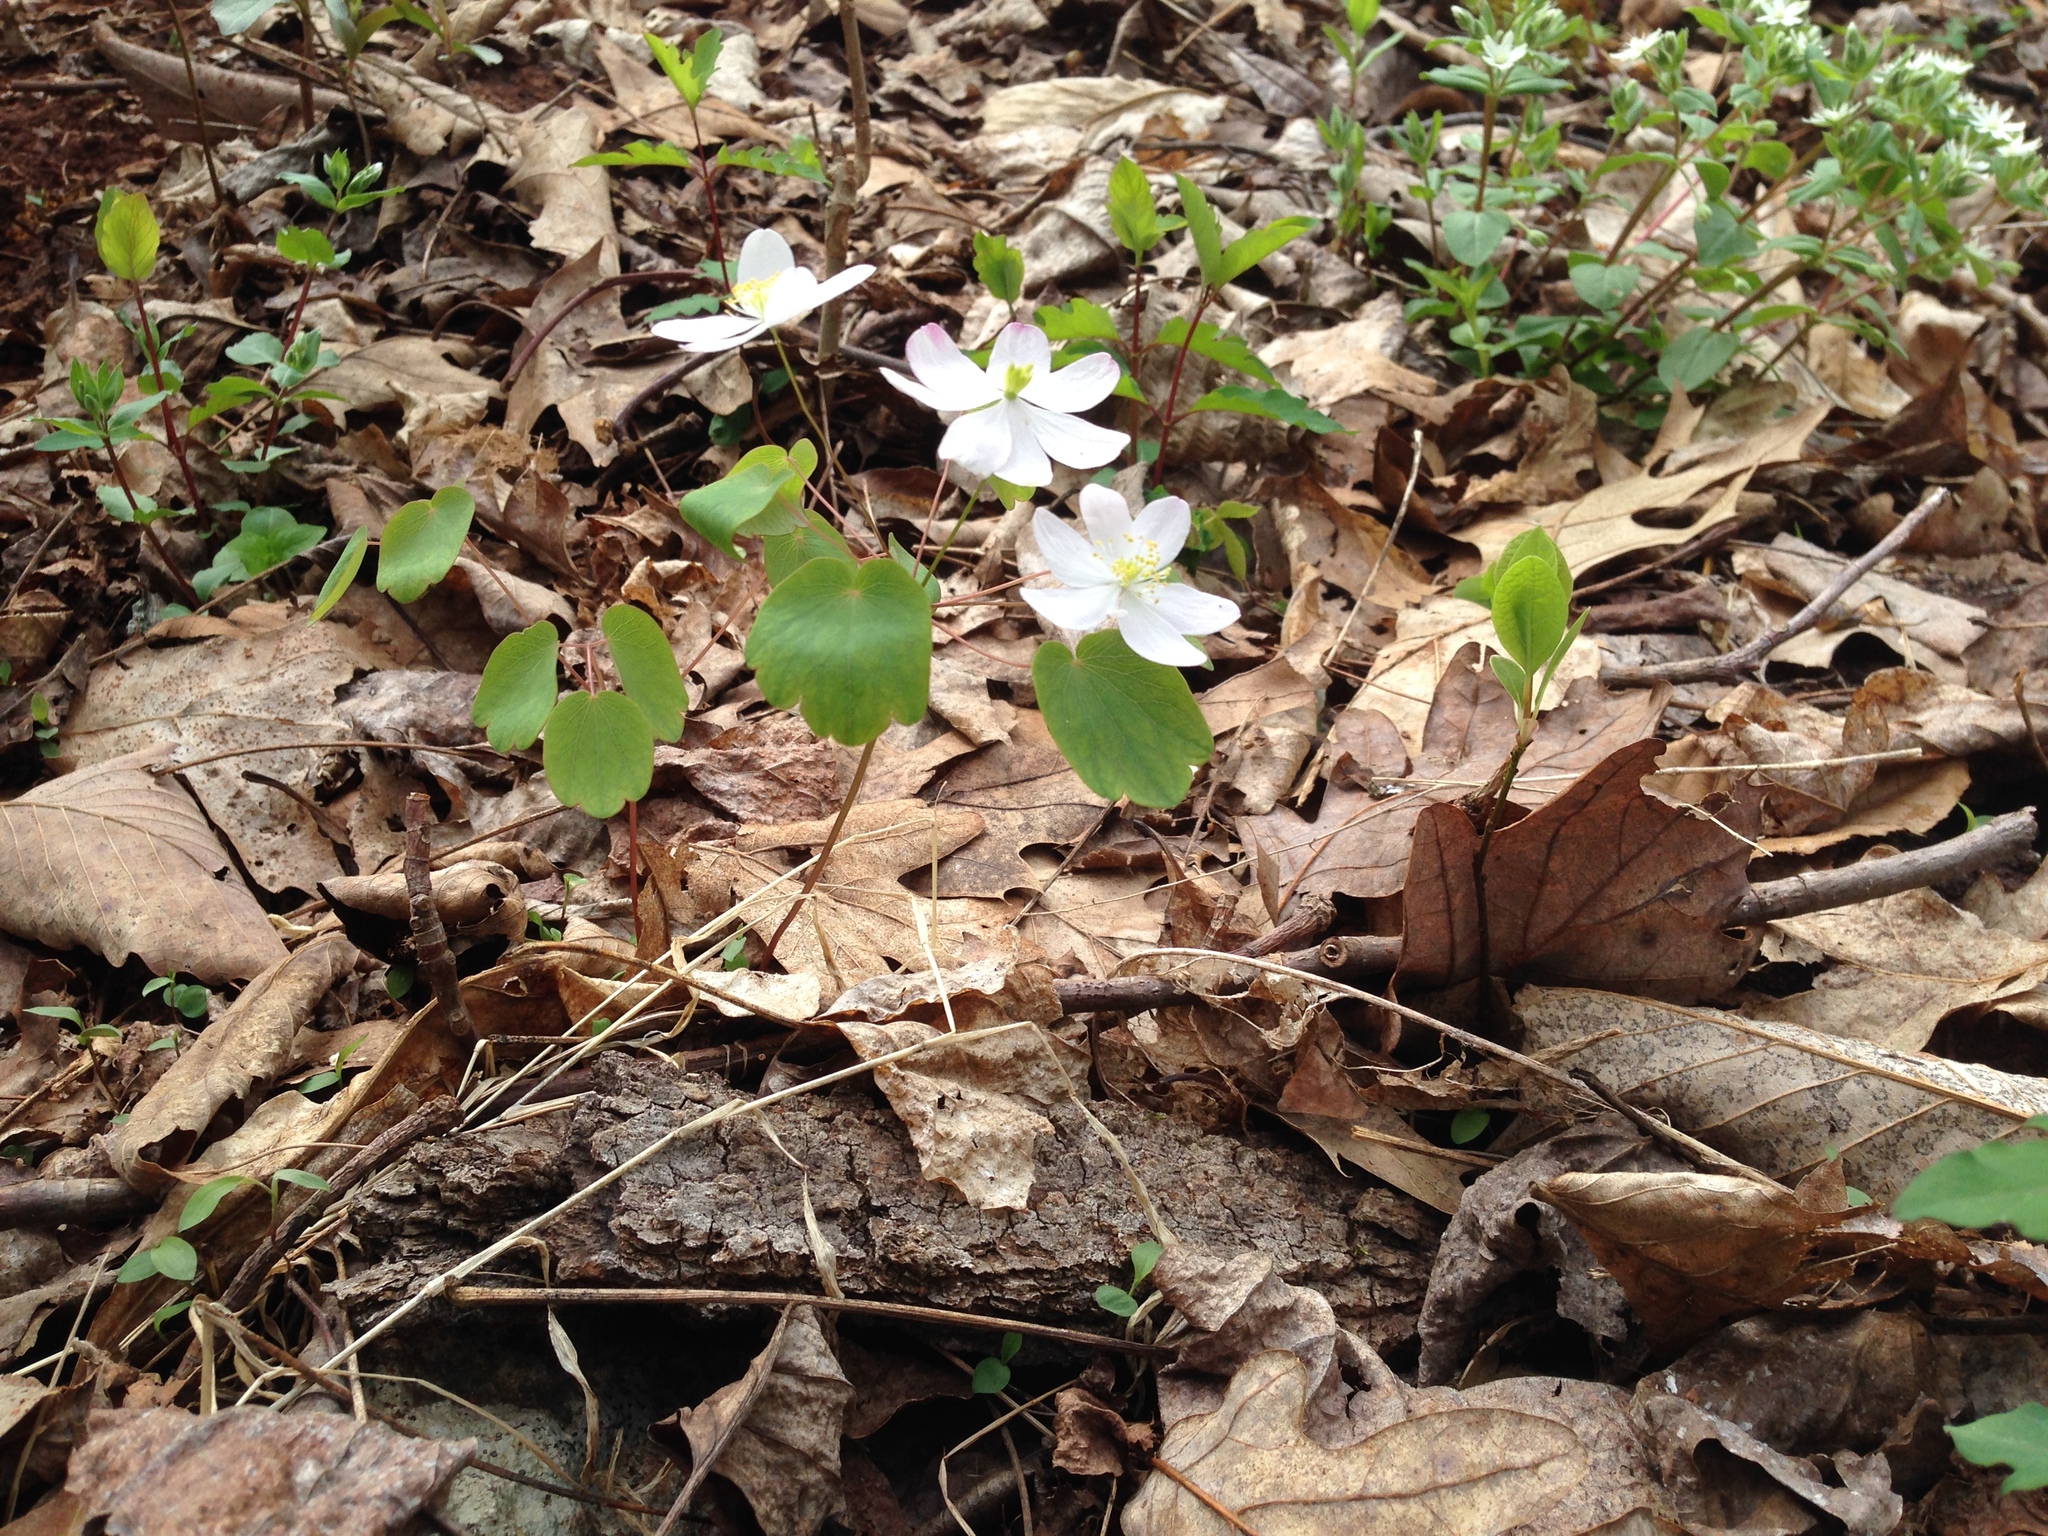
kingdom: Plantae
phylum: Tracheophyta
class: Magnoliopsida
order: Ranunculales
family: Ranunculaceae
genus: Thalictrum
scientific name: Thalictrum thalictroides
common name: Rue-anemone
